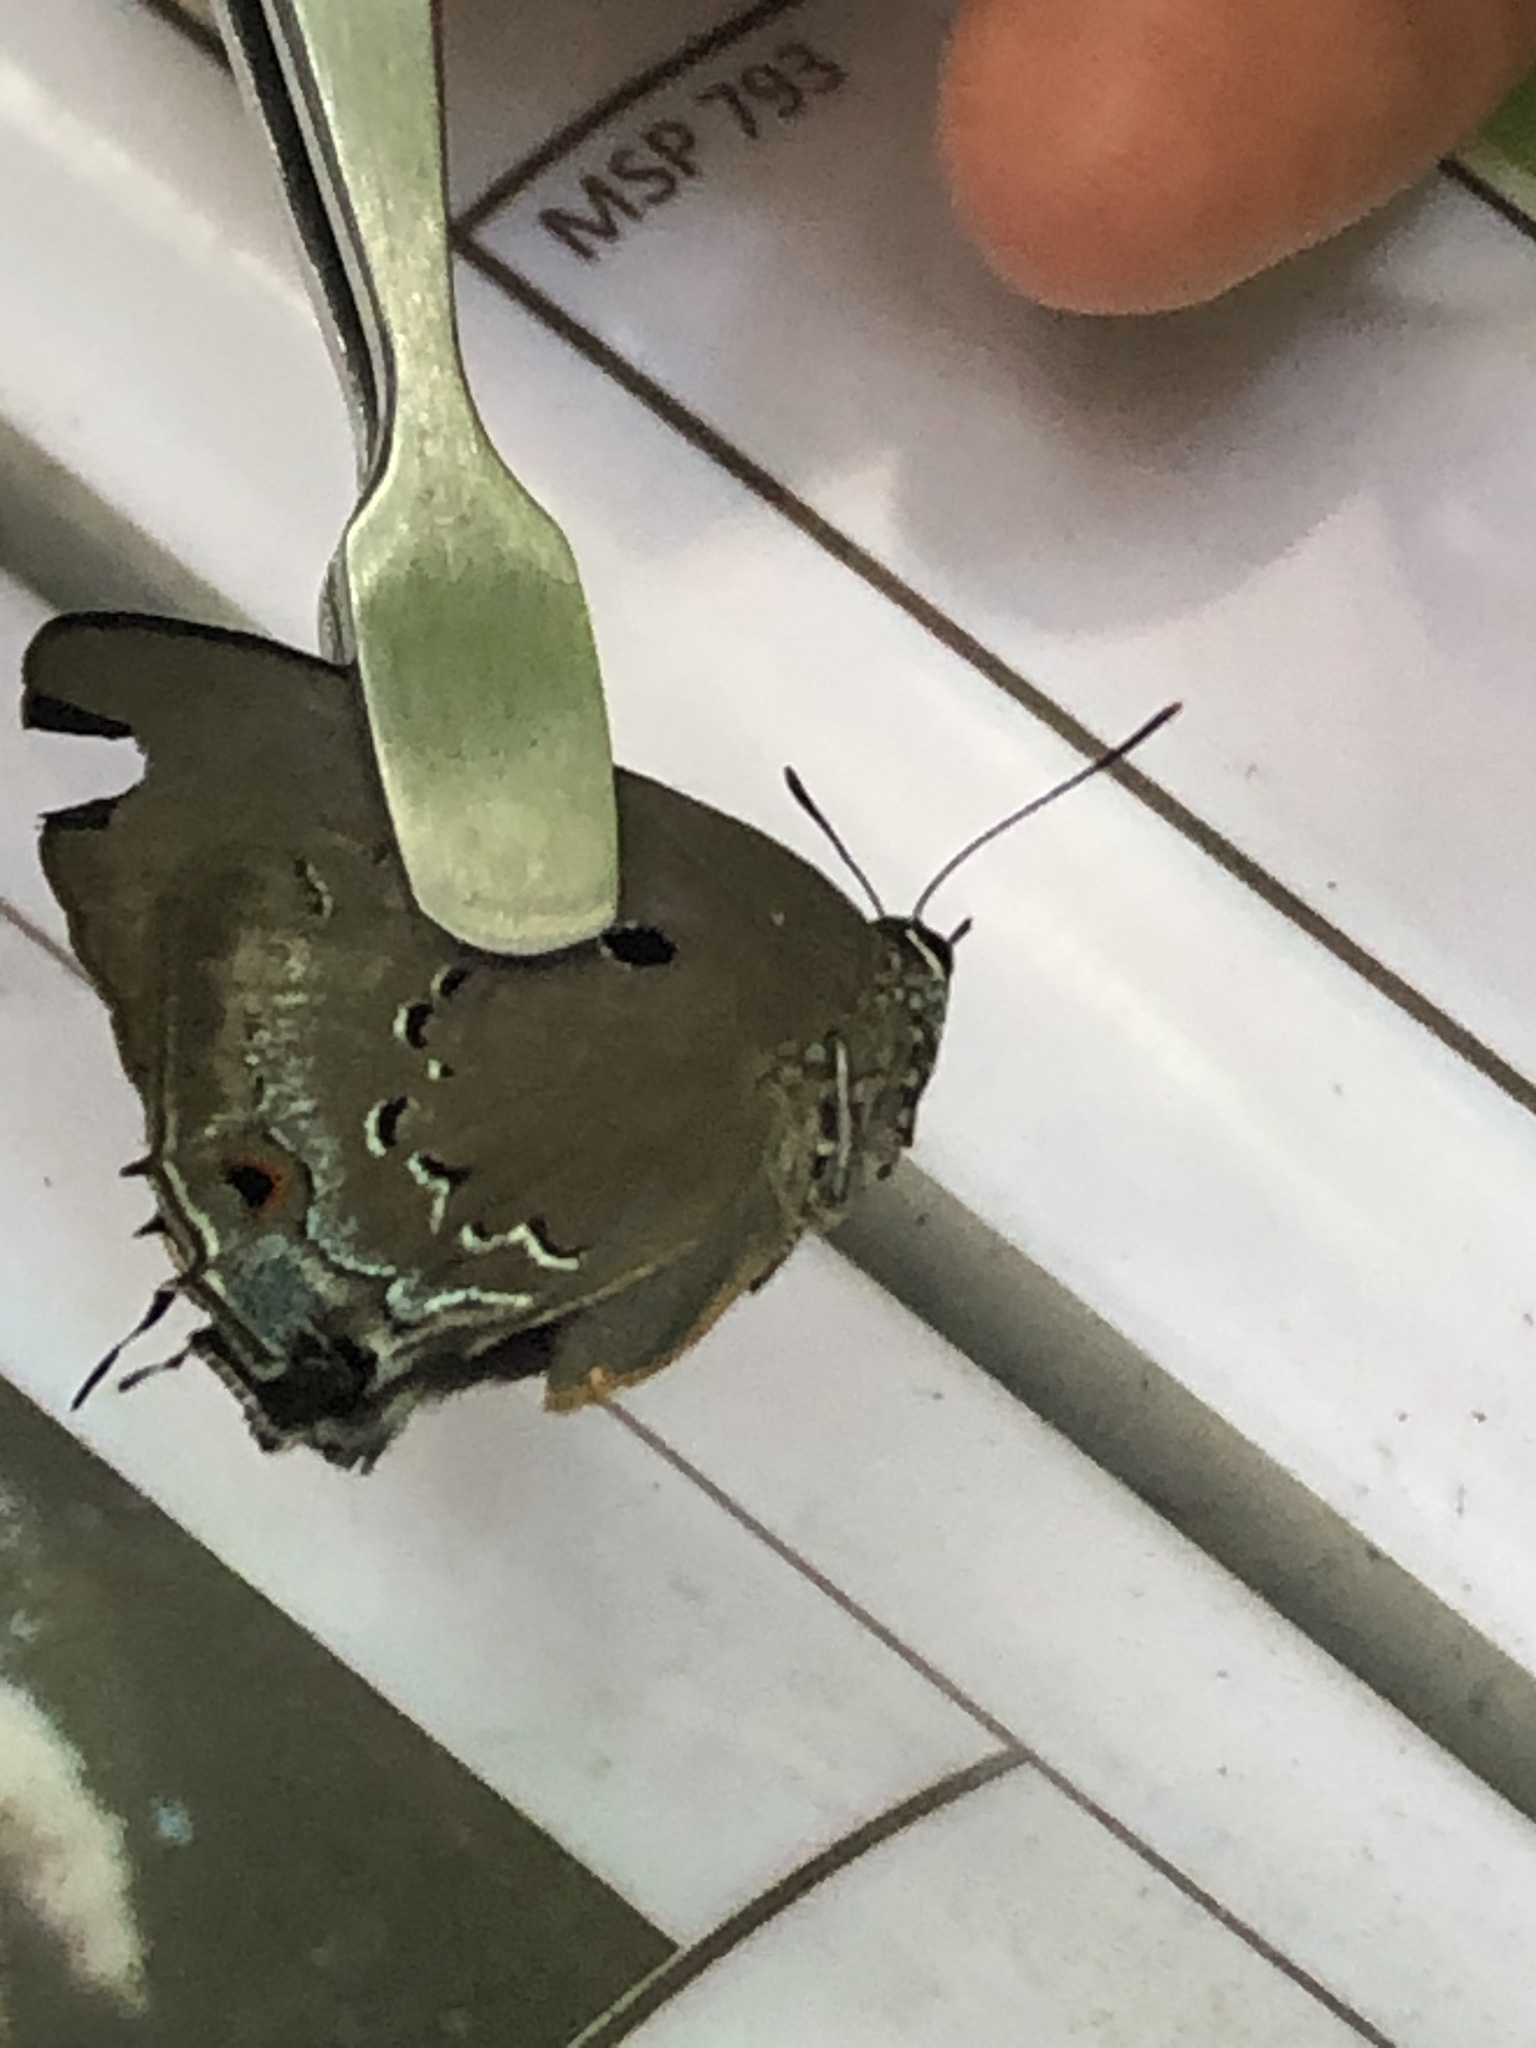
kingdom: Animalia
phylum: Arthropoda
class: Insecta
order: Lepidoptera
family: Lycaenidae
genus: Parrhasius
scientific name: Parrhasius polibetes
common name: Black-spot hairstreak
